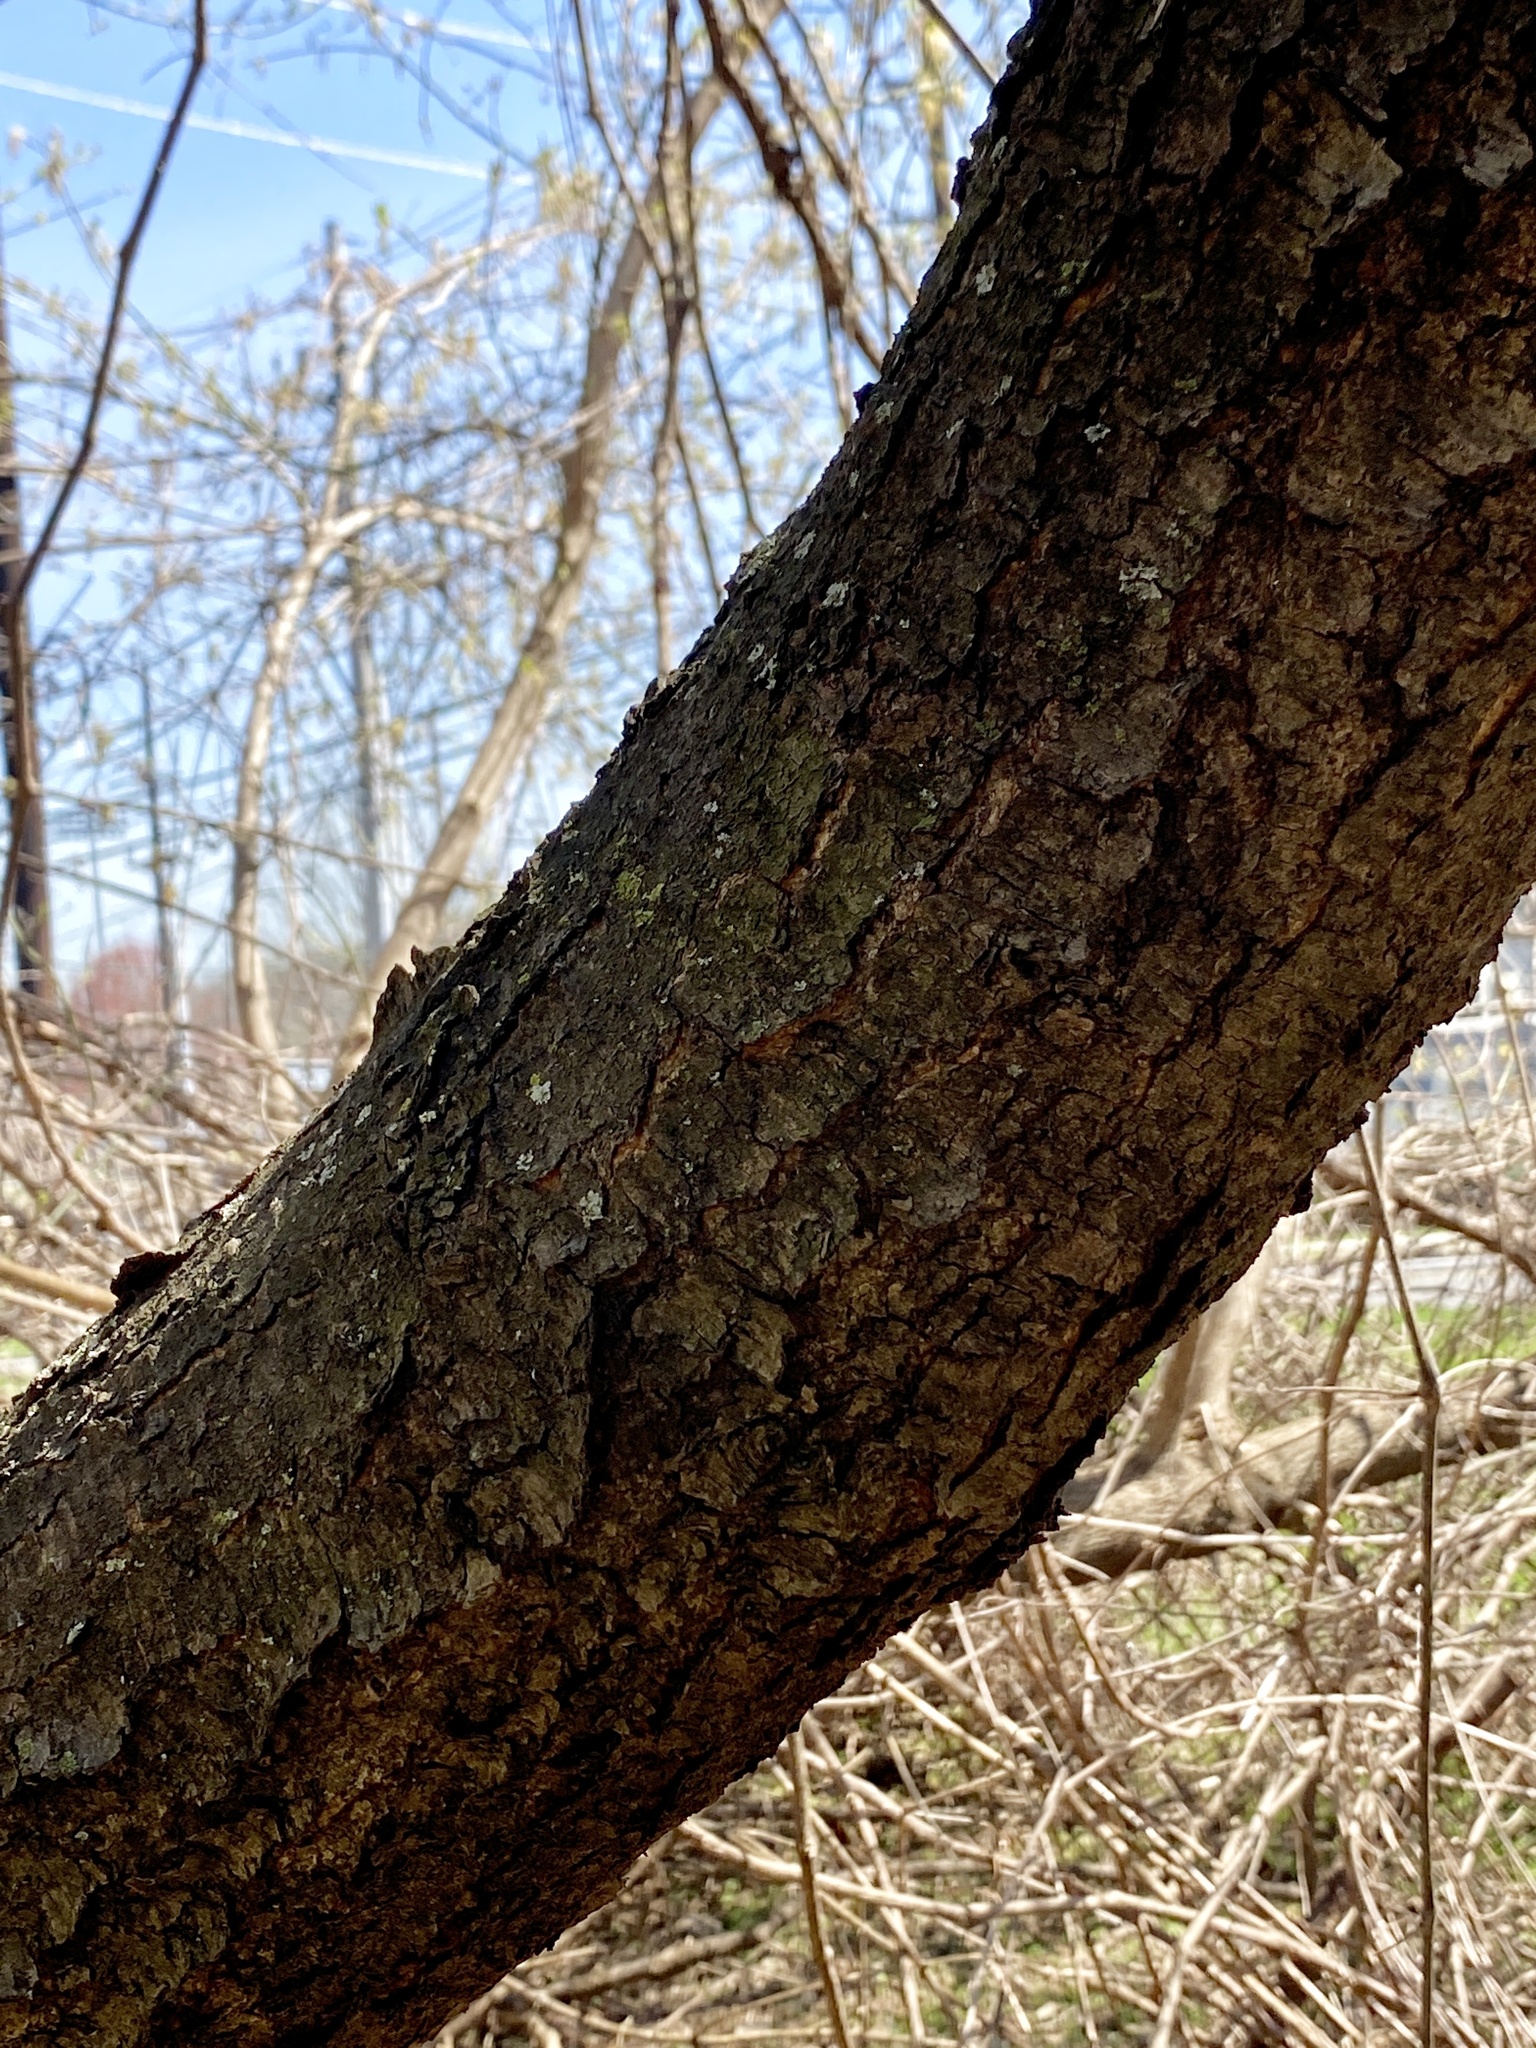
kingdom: Plantae
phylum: Tracheophyta
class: Magnoliopsida
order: Rosales
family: Rosaceae
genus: Prunus
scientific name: Prunus serotina
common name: Black cherry
